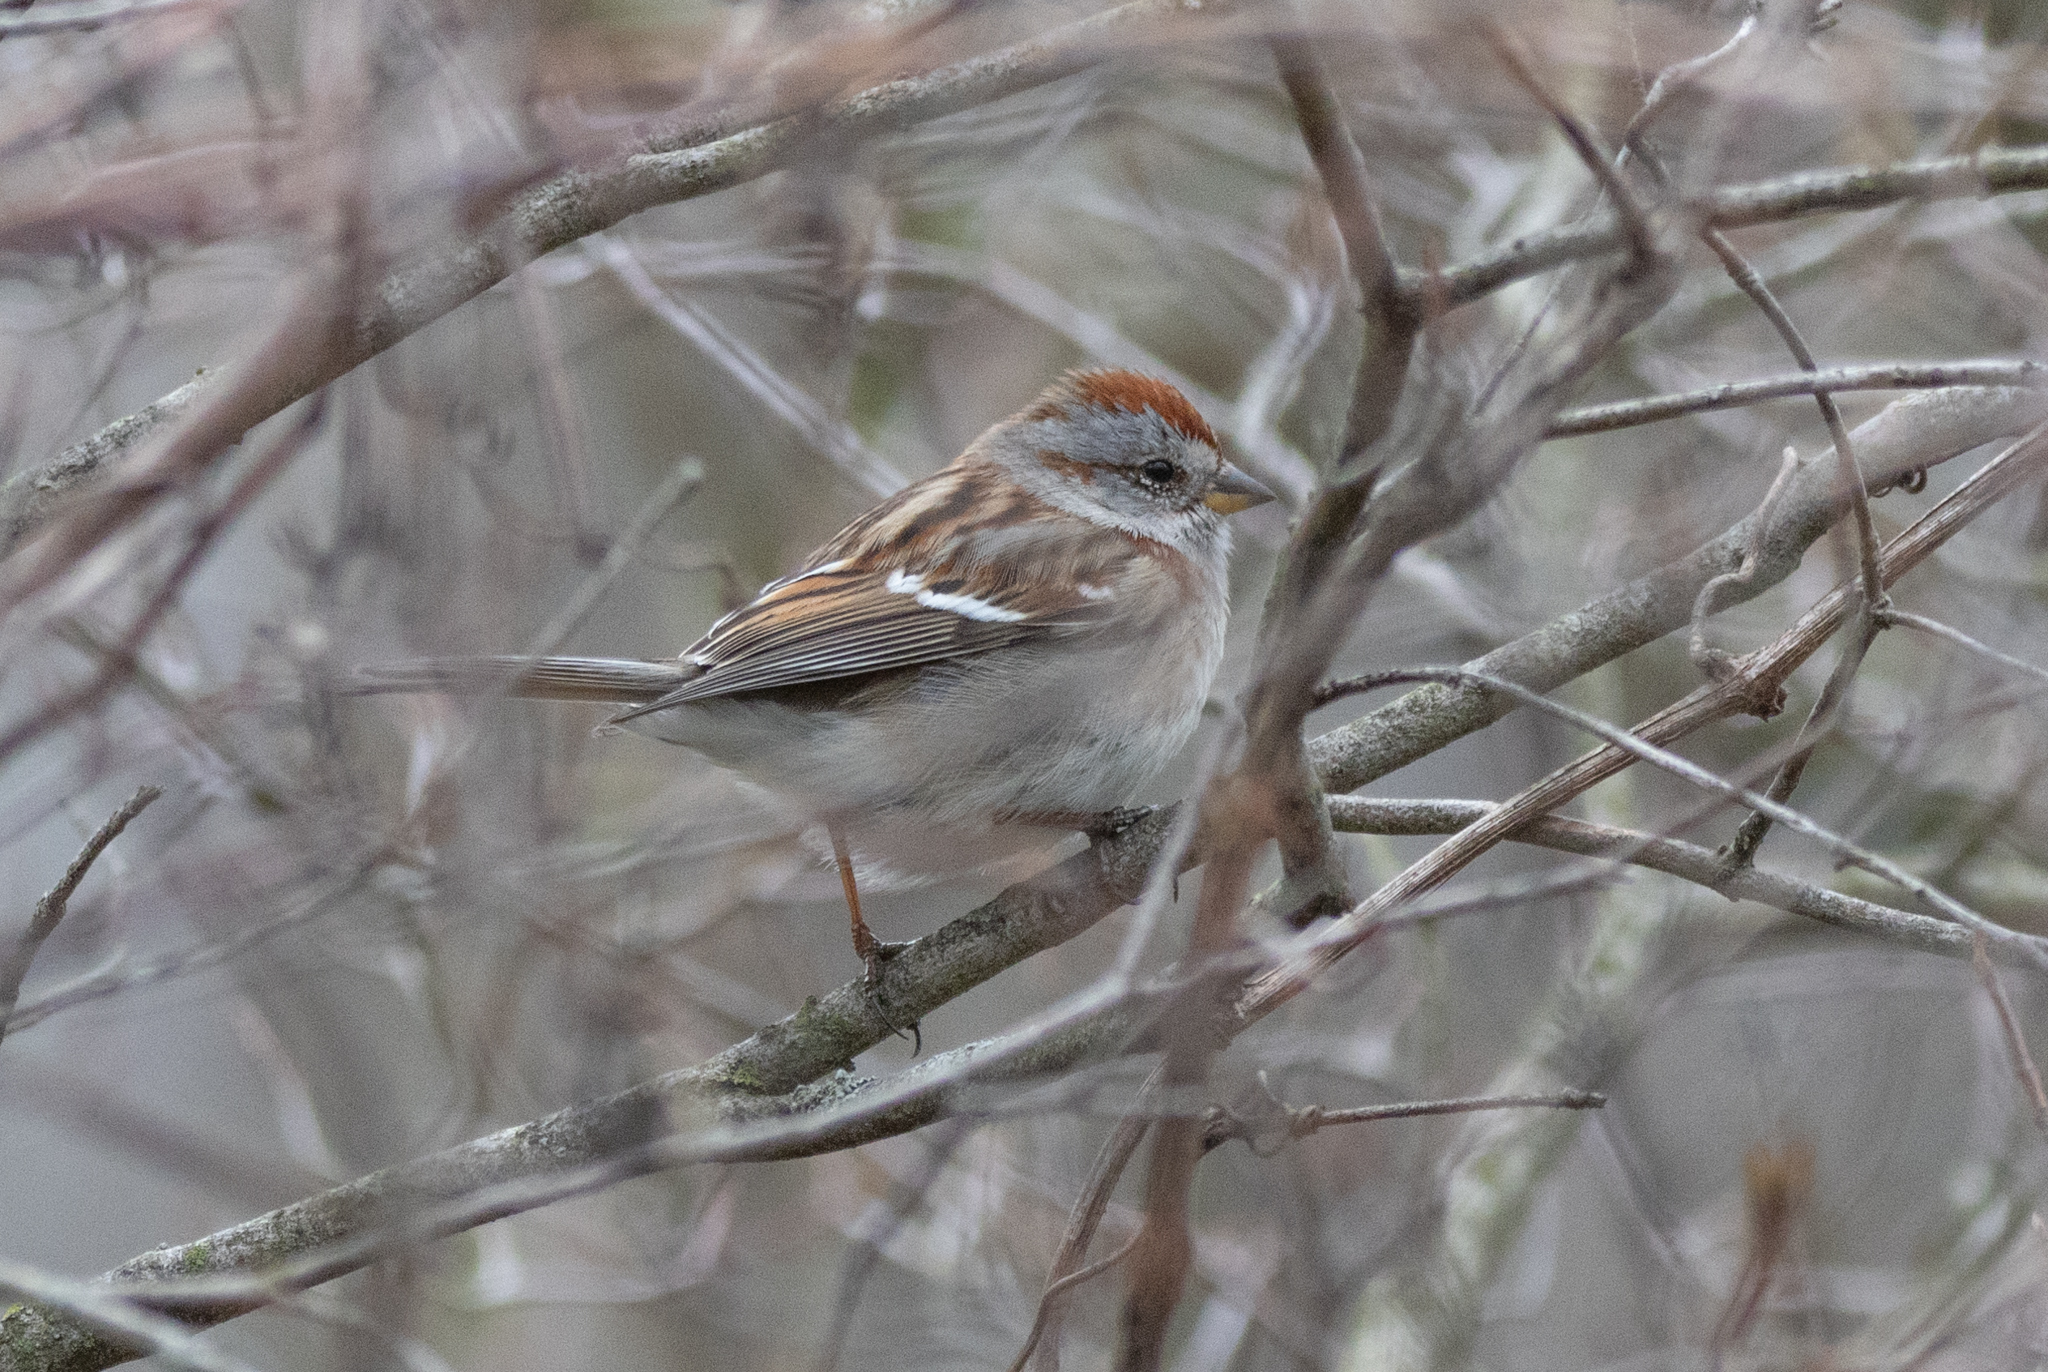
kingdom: Animalia
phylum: Chordata
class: Aves
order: Passeriformes
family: Passerellidae
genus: Spizelloides
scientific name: Spizelloides arborea
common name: American tree sparrow
